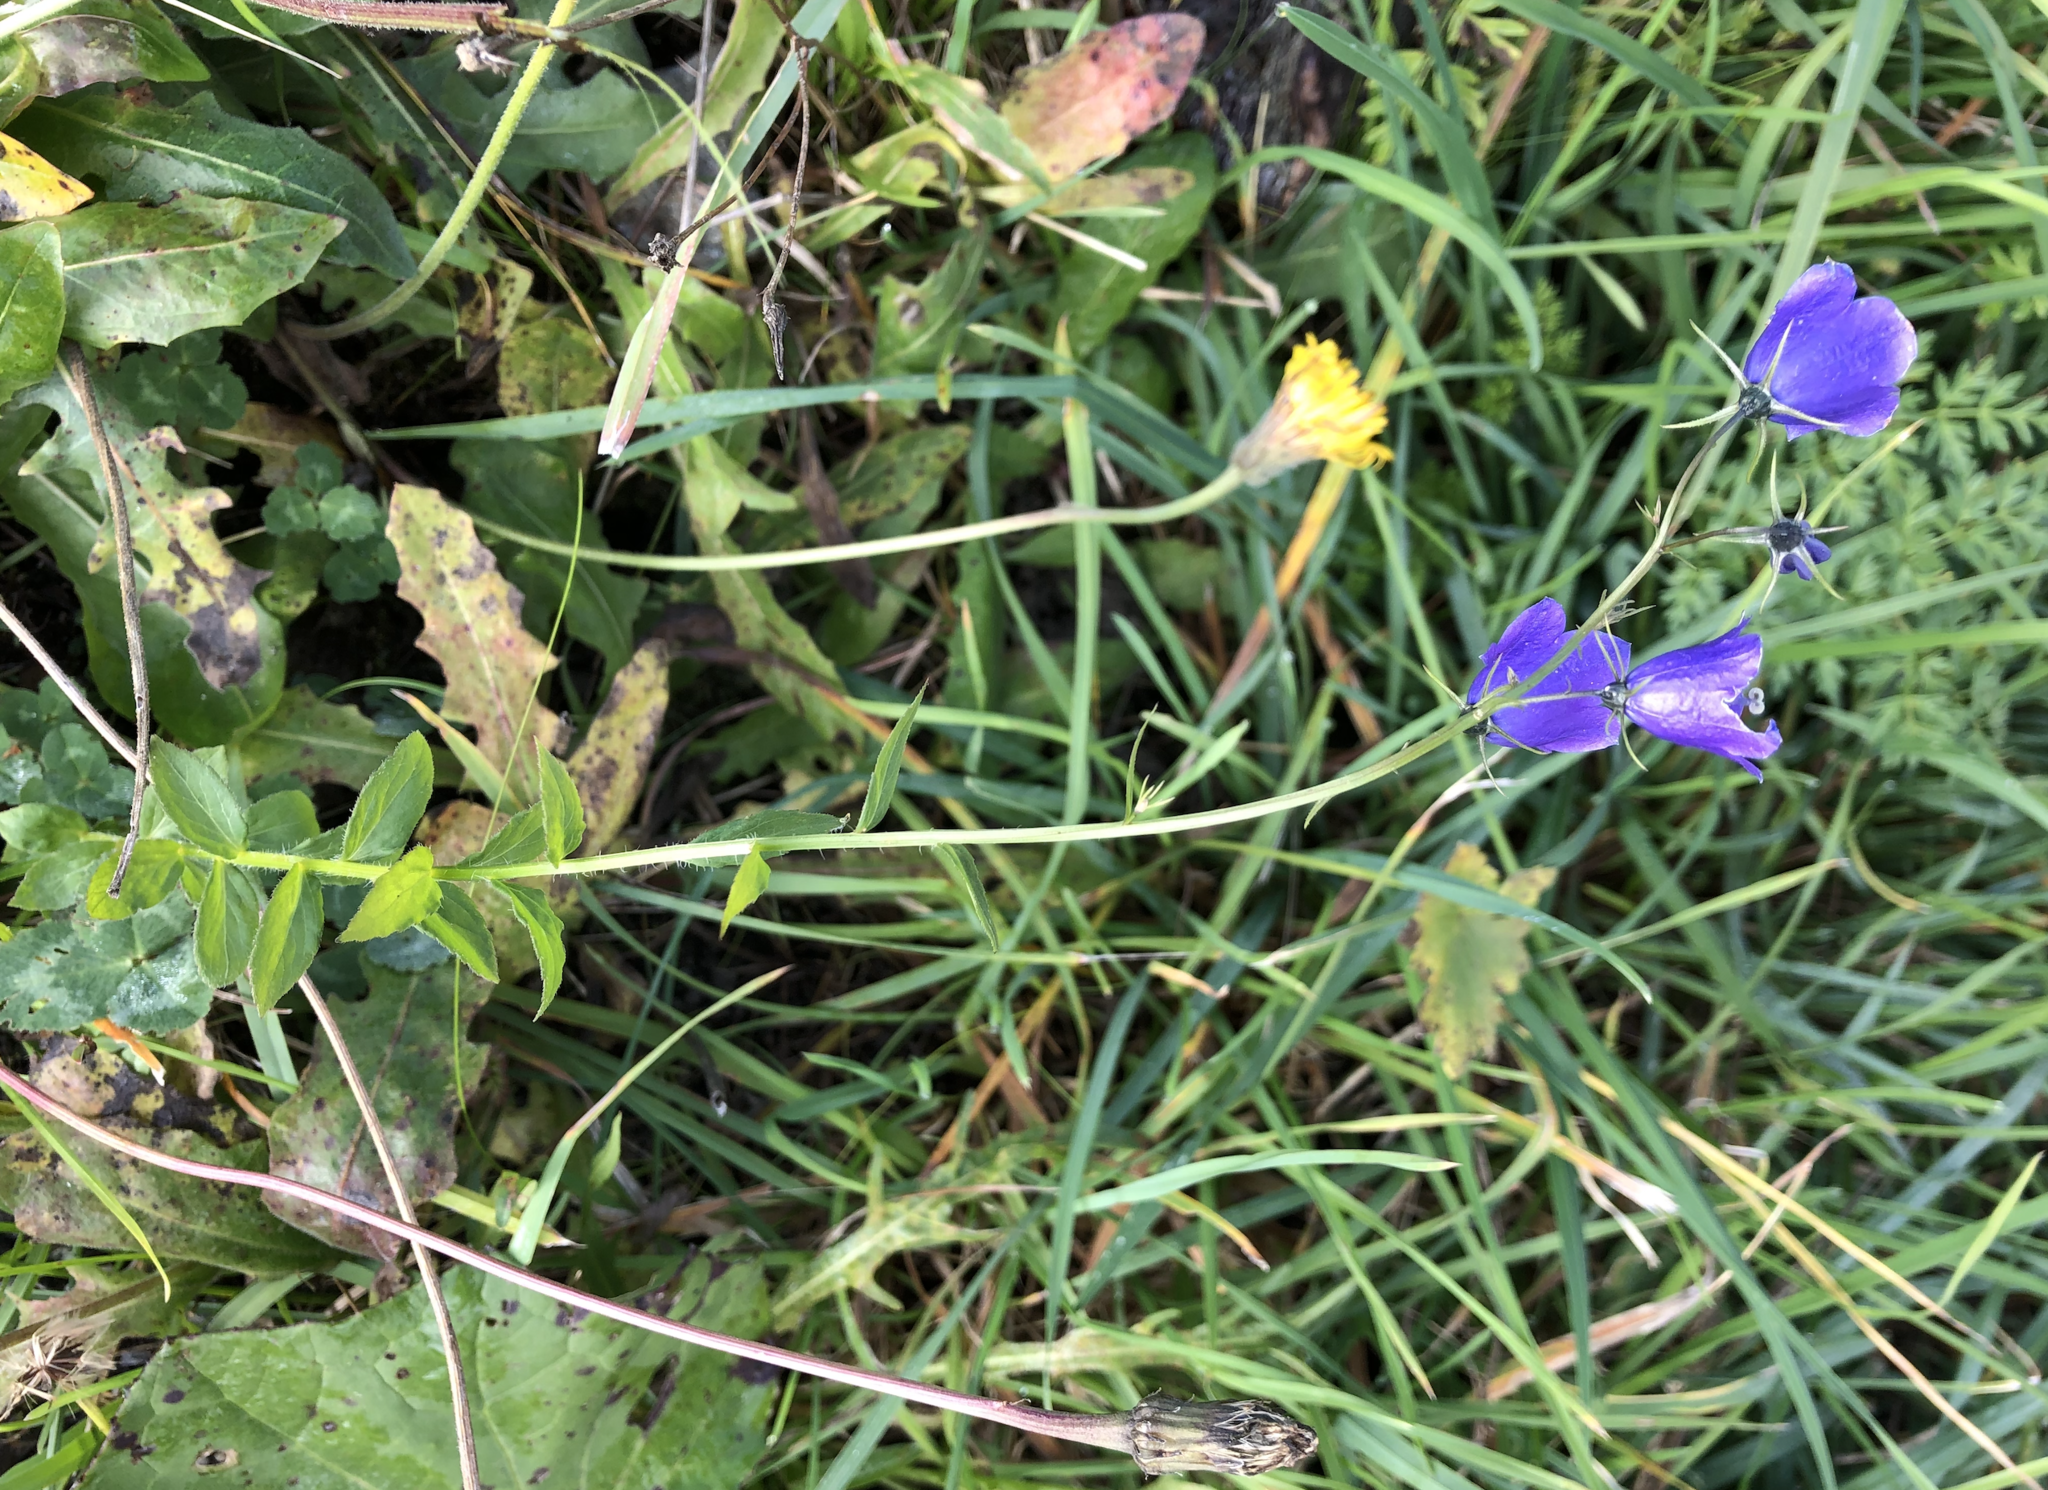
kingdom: Plantae
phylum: Tracheophyta
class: Magnoliopsida
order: Asterales
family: Campanulaceae
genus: Campanula
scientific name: Campanula rhomboidalis
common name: Broad-leaved harebell
